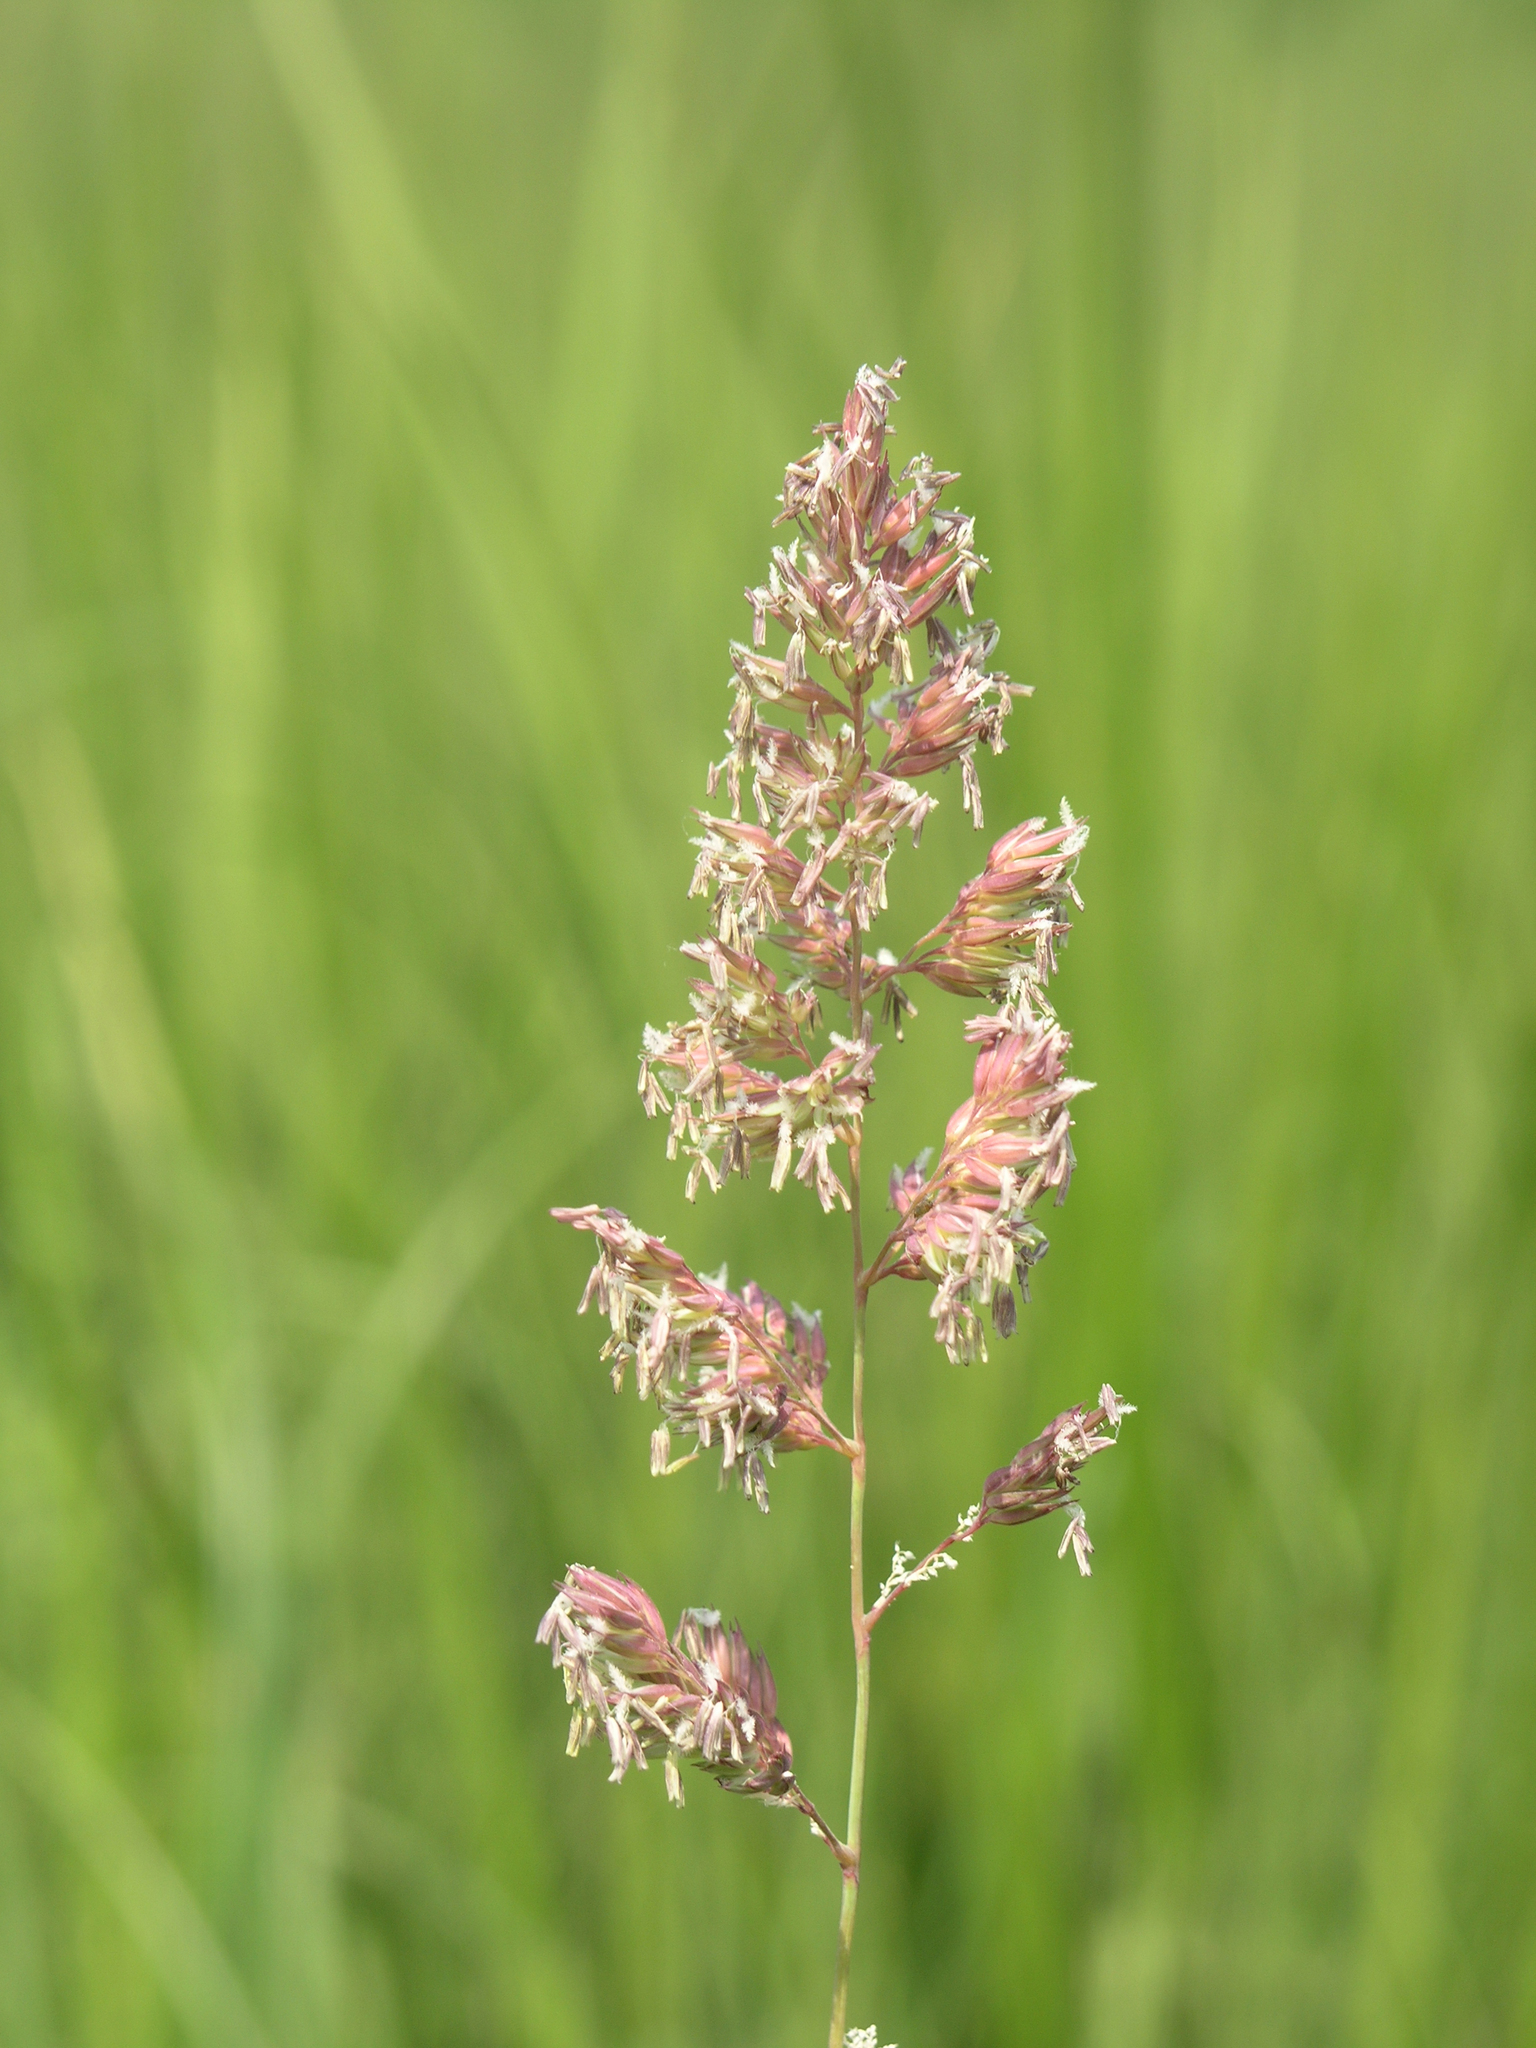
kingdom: Plantae
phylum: Tracheophyta
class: Liliopsida
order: Poales
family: Poaceae
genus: Phalaris
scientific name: Phalaris arundinacea
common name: Reed canary-grass
